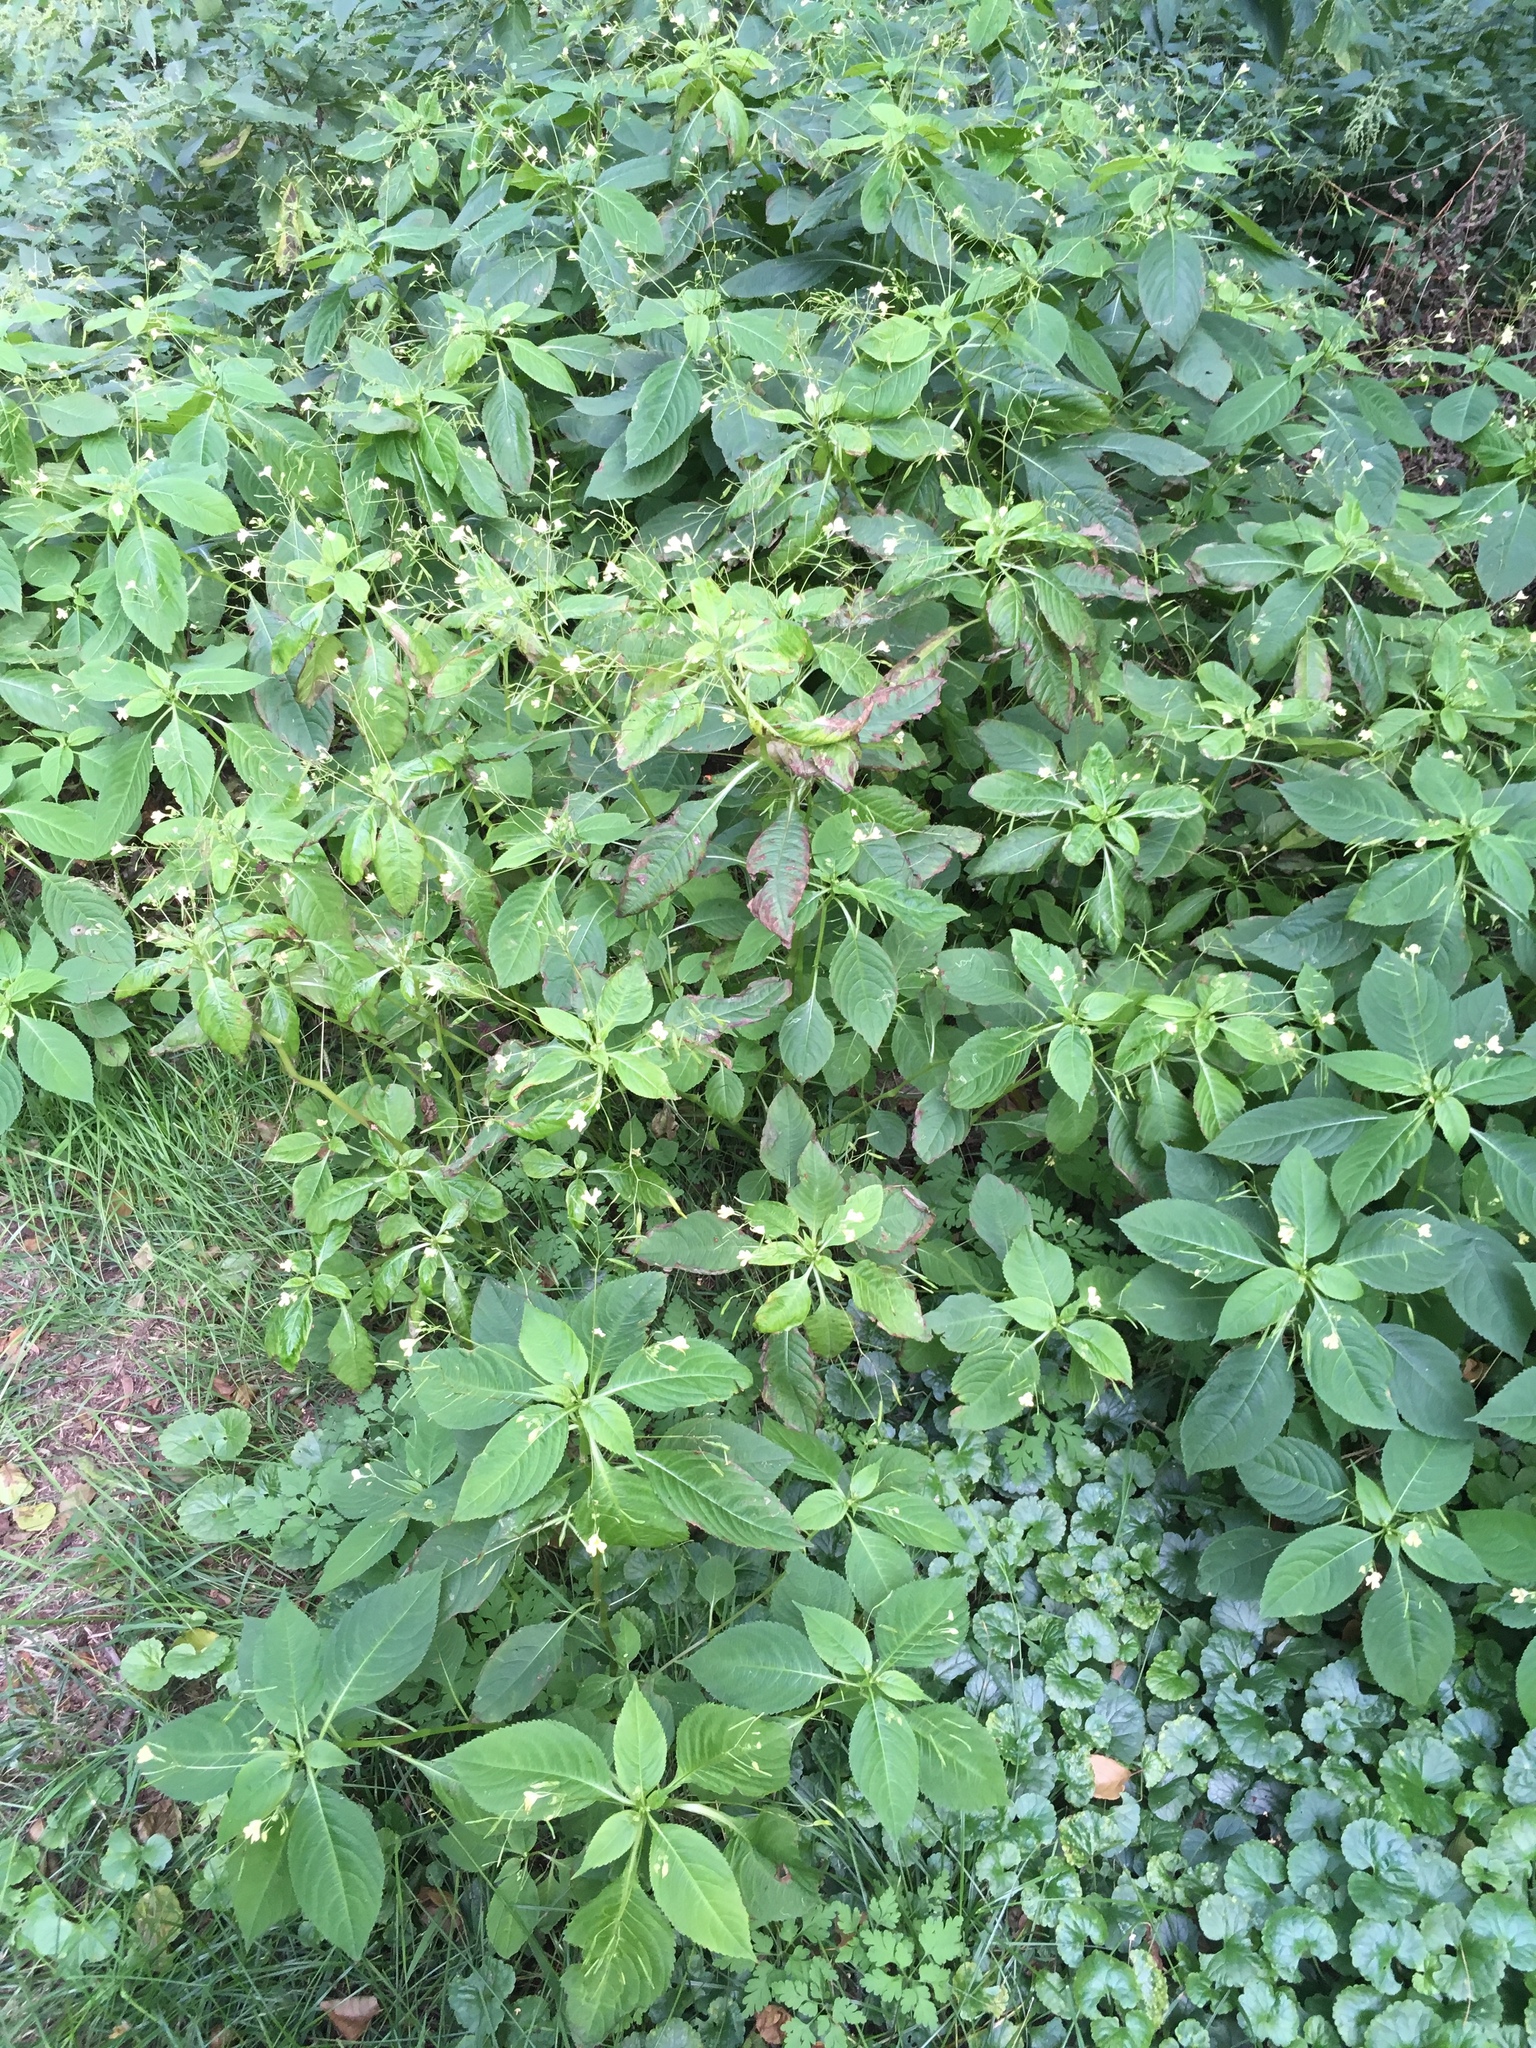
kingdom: Plantae
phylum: Tracheophyta
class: Magnoliopsida
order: Ericales
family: Balsaminaceae
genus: Impatiens
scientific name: Impatiens parviflora
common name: Small balsam
